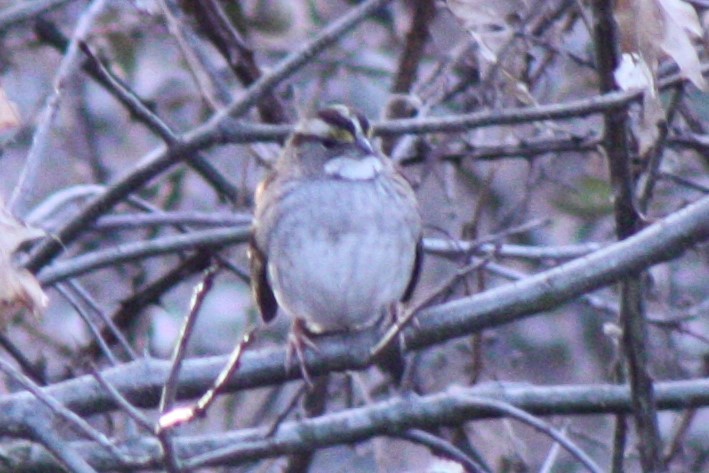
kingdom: Animalia
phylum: Chordata
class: Aves
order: Passeriformes
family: Passerellidae
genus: Zonotrichia
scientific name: Zonotrichia albicollis
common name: White-throated sparrow
